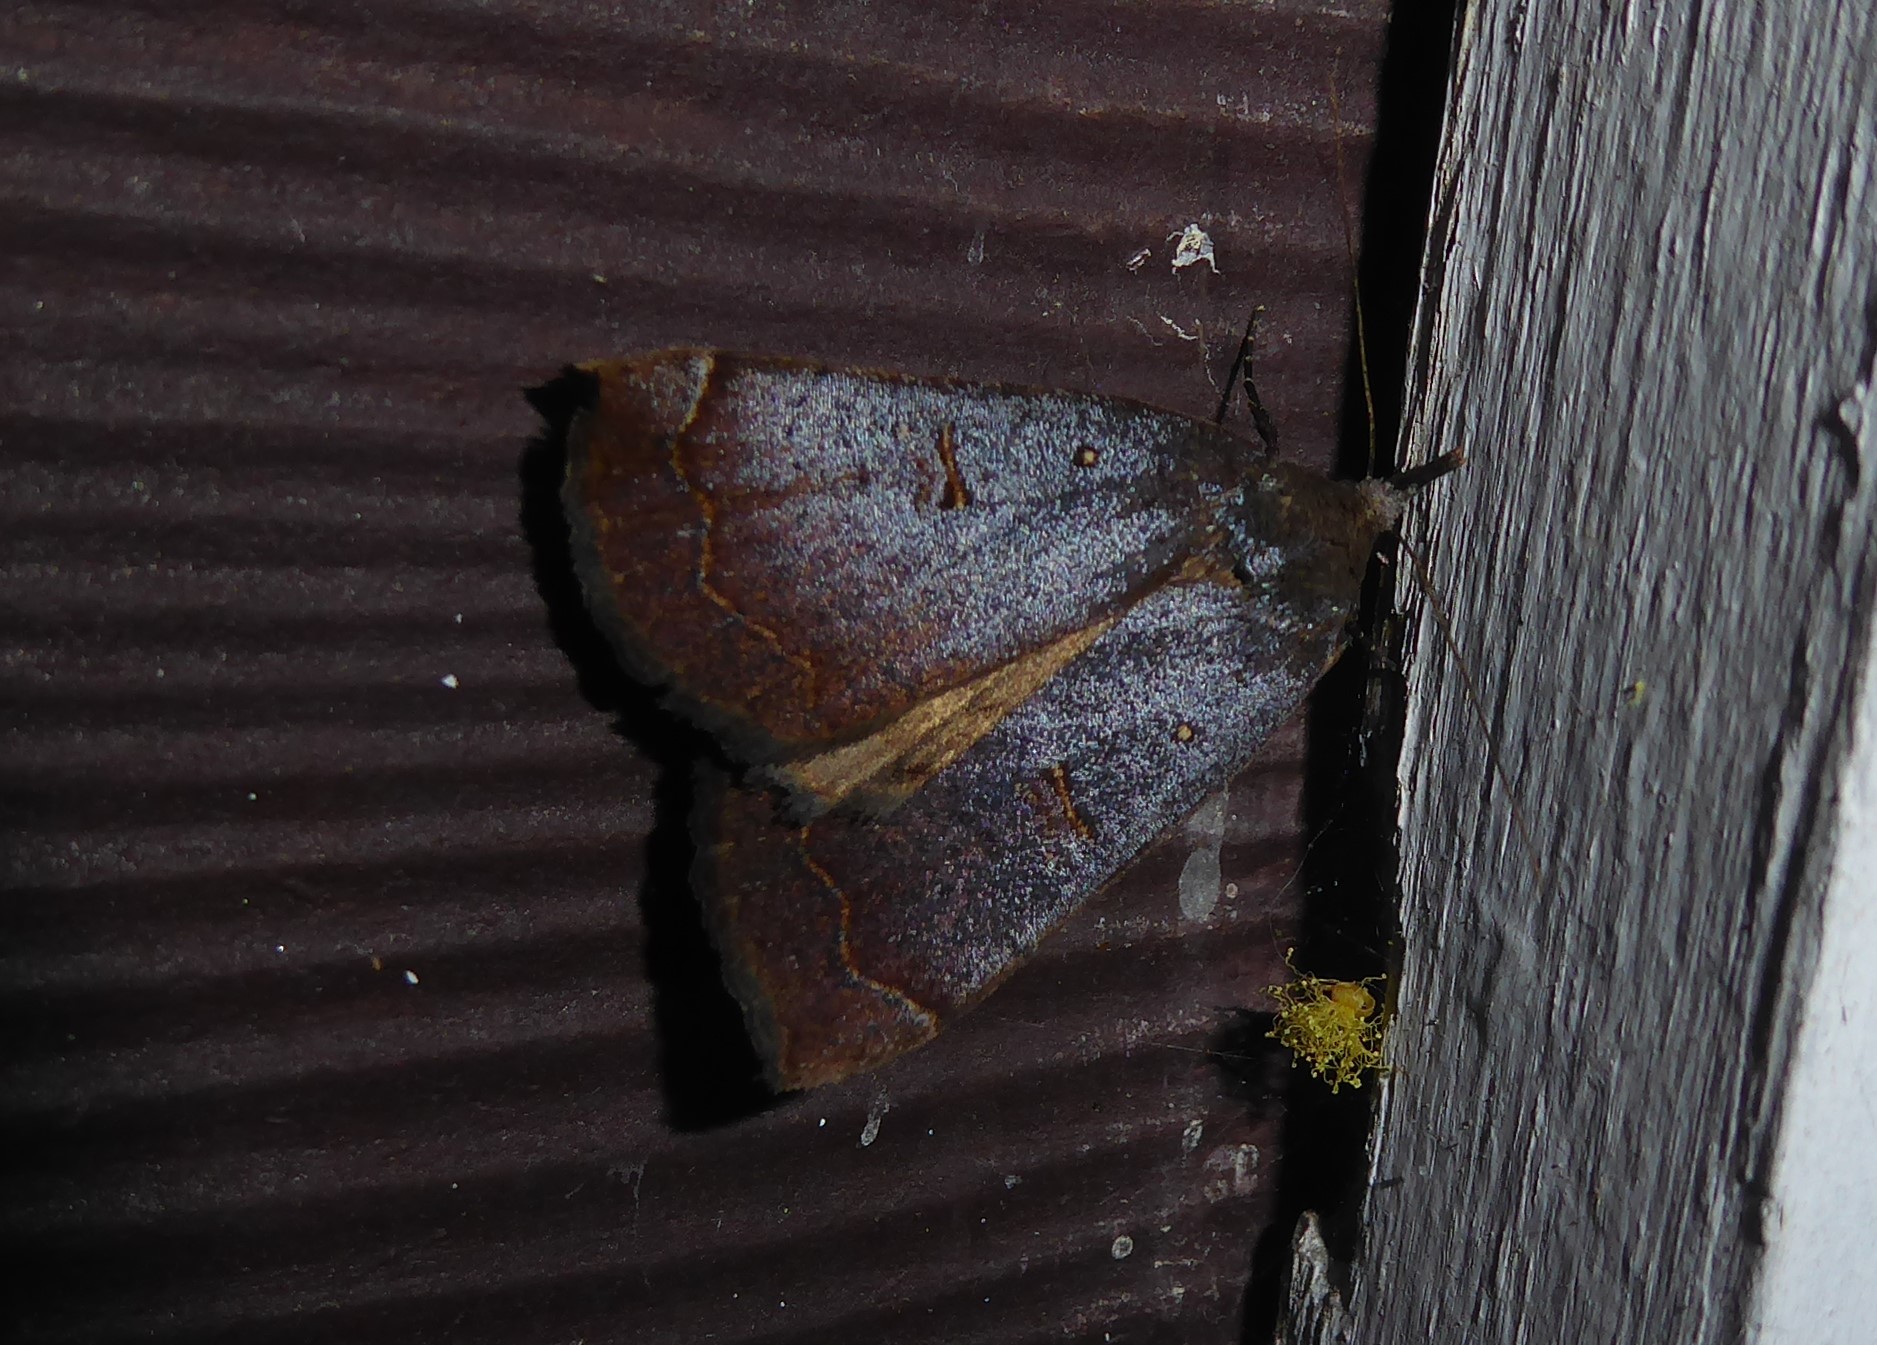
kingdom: Animalia
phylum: Arthropoda
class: Insecta
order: Lepidoptera
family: Erebidae
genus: Rhapsa
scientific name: Rhapsa scotosialis
